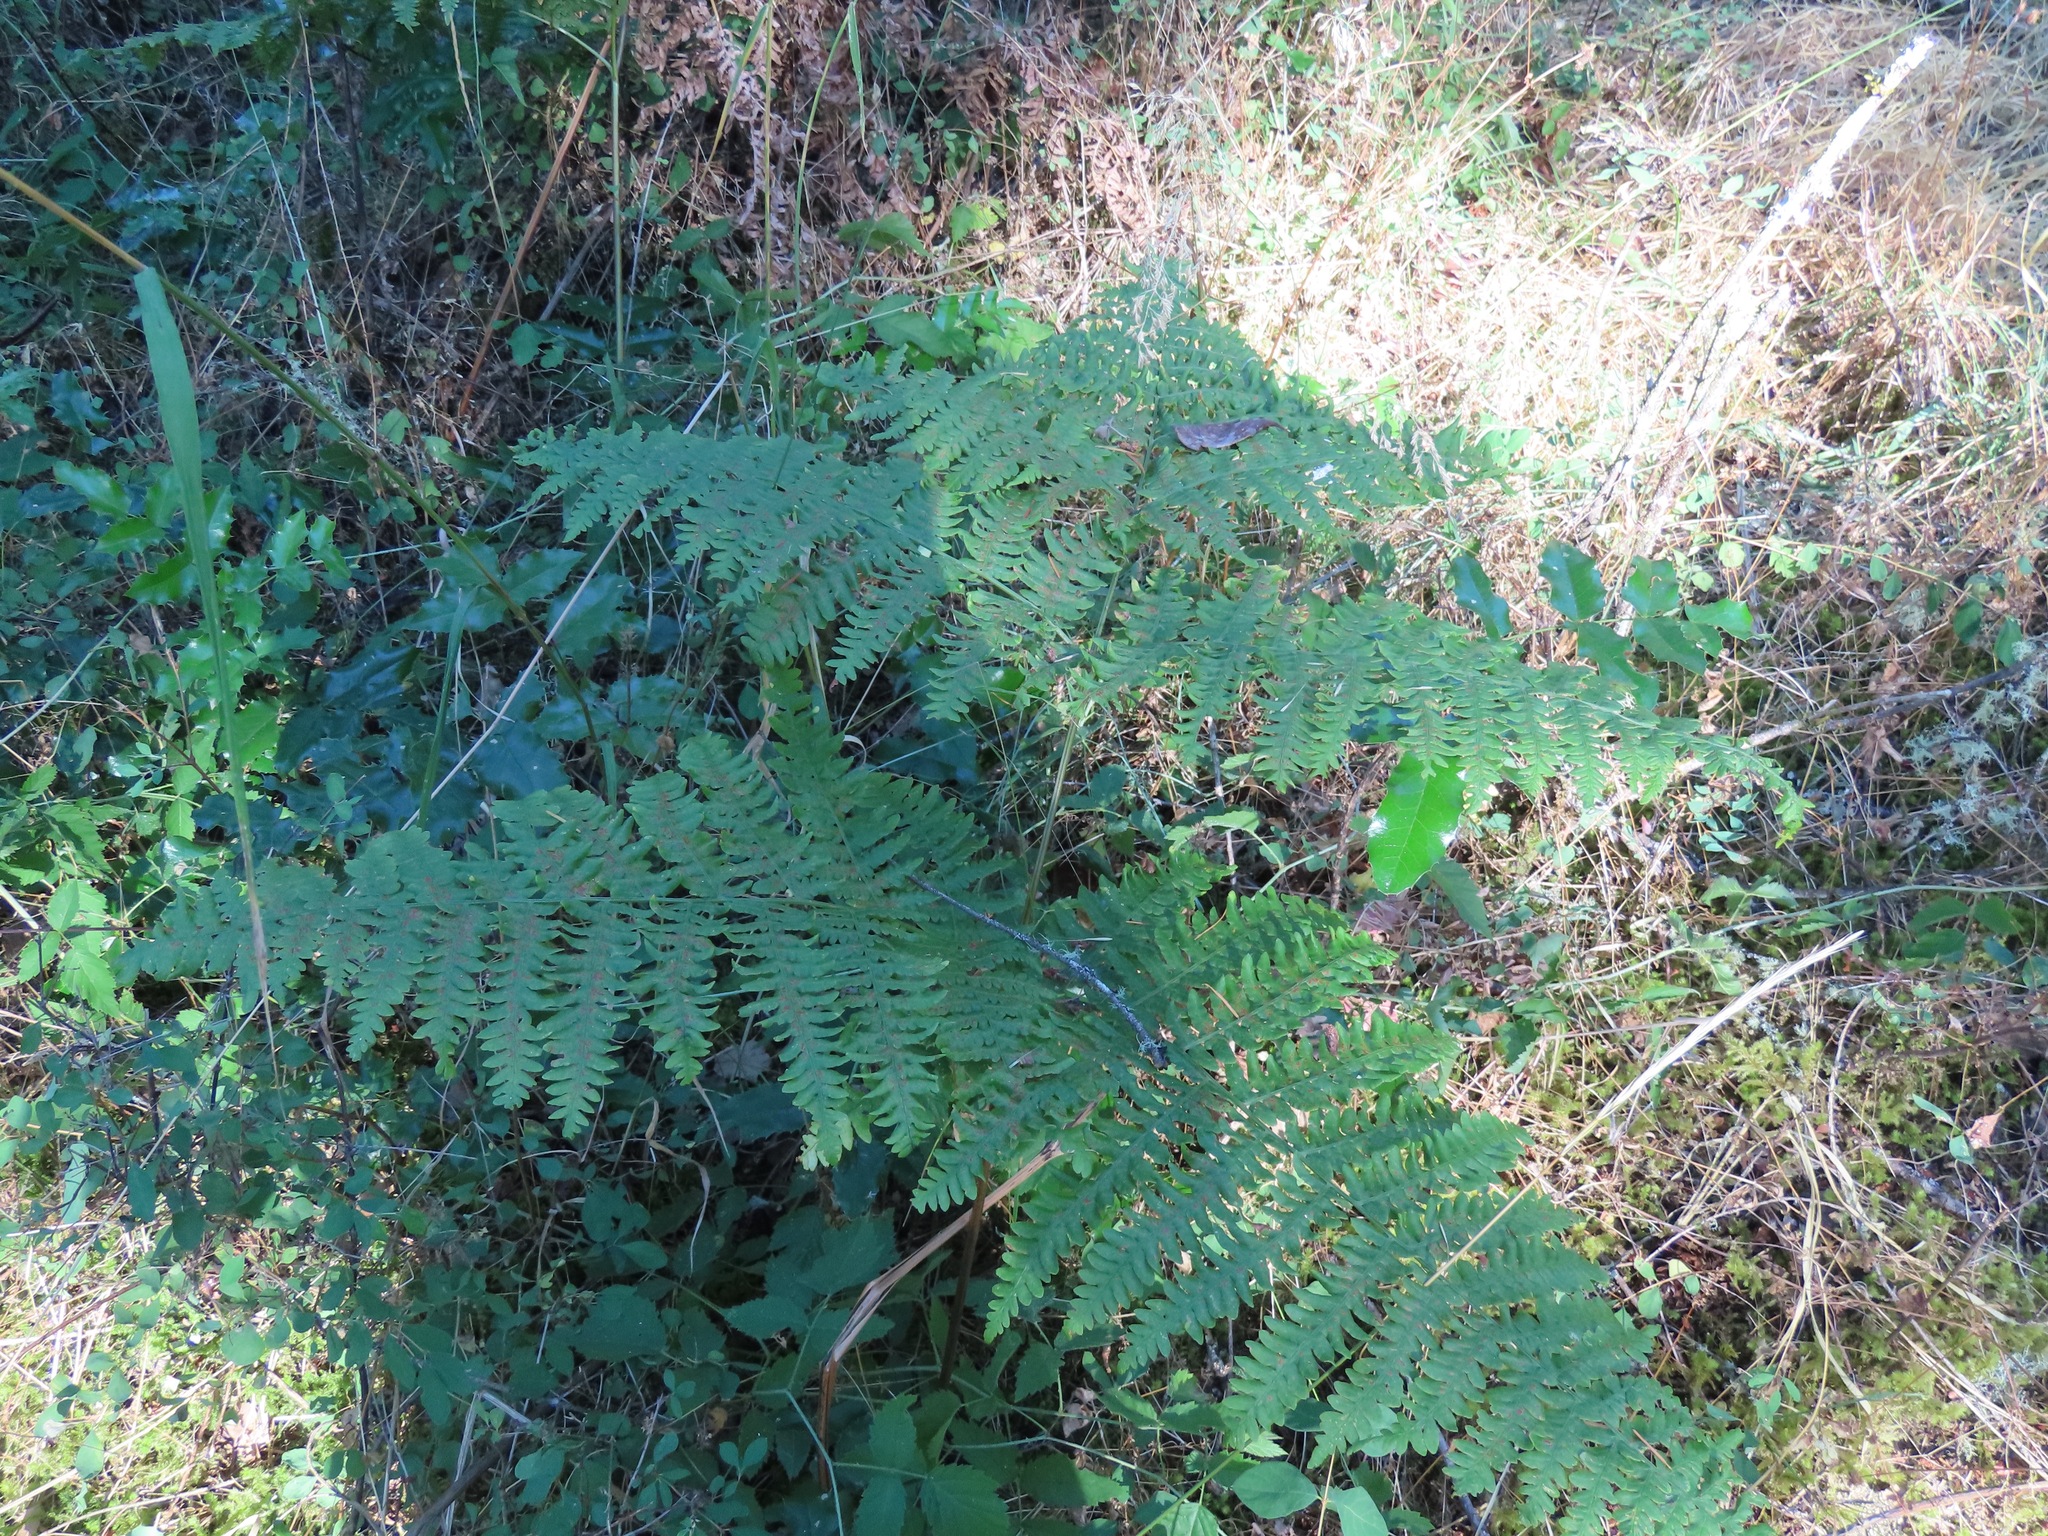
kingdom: Plantae
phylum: Tracheophyta
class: Polypodiopsida
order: Polypodiales
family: Dennstaedtiaceae
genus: Pteridium
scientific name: Pteridium aquilinum
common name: Bracken
